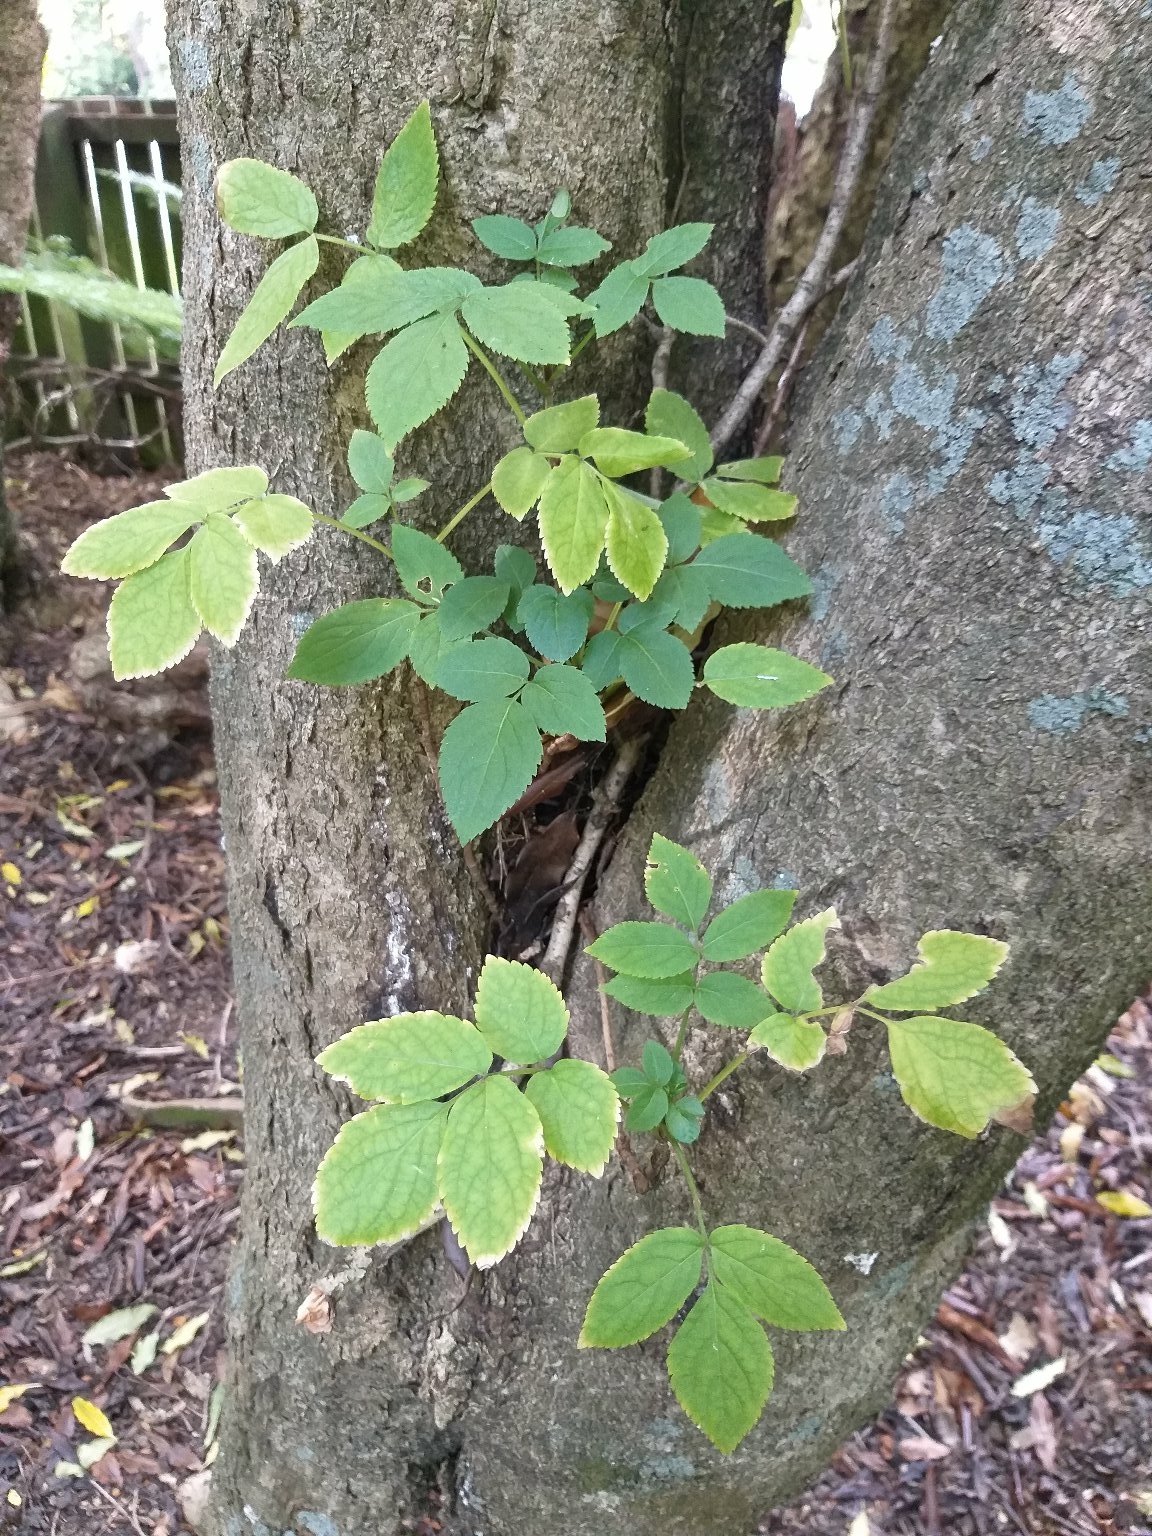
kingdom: Plantae
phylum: Tracheophyta
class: Magnoliopsida
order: Dipsacales
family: Viburnaceae
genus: Sambucus
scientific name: Sambucus nigra
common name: Elder
